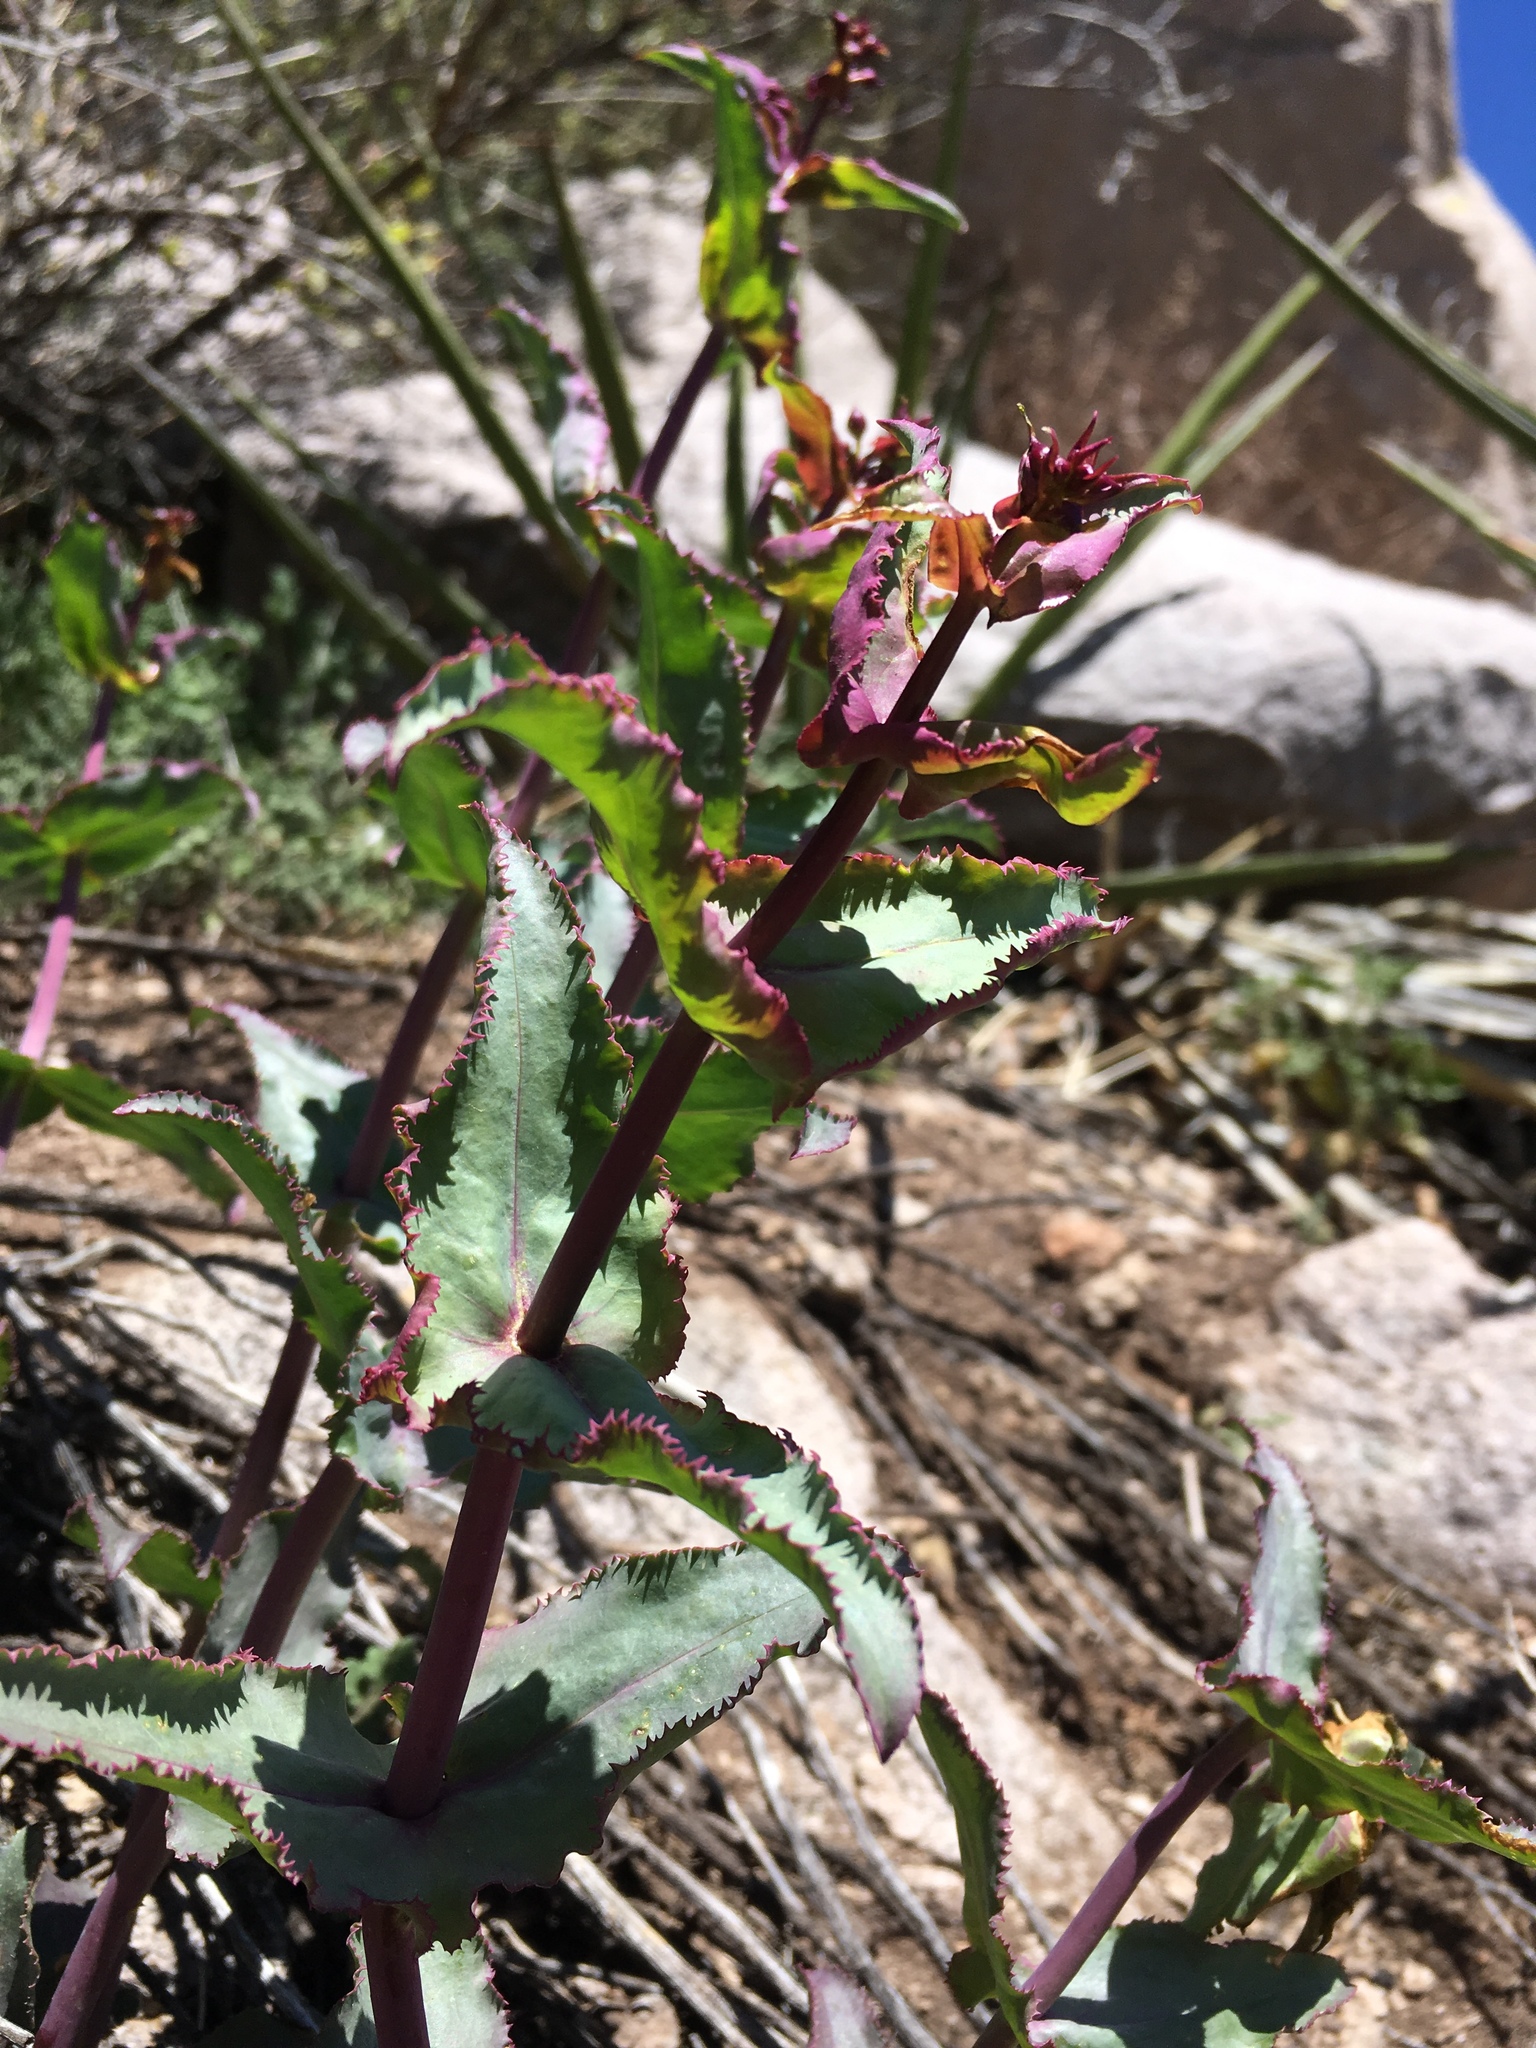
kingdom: Plantae
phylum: Tracheophyta
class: Magnoliopsida
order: Lamiales
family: Plantaginaceae
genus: Penstemon
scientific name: Penstemon pseudospectabilis
